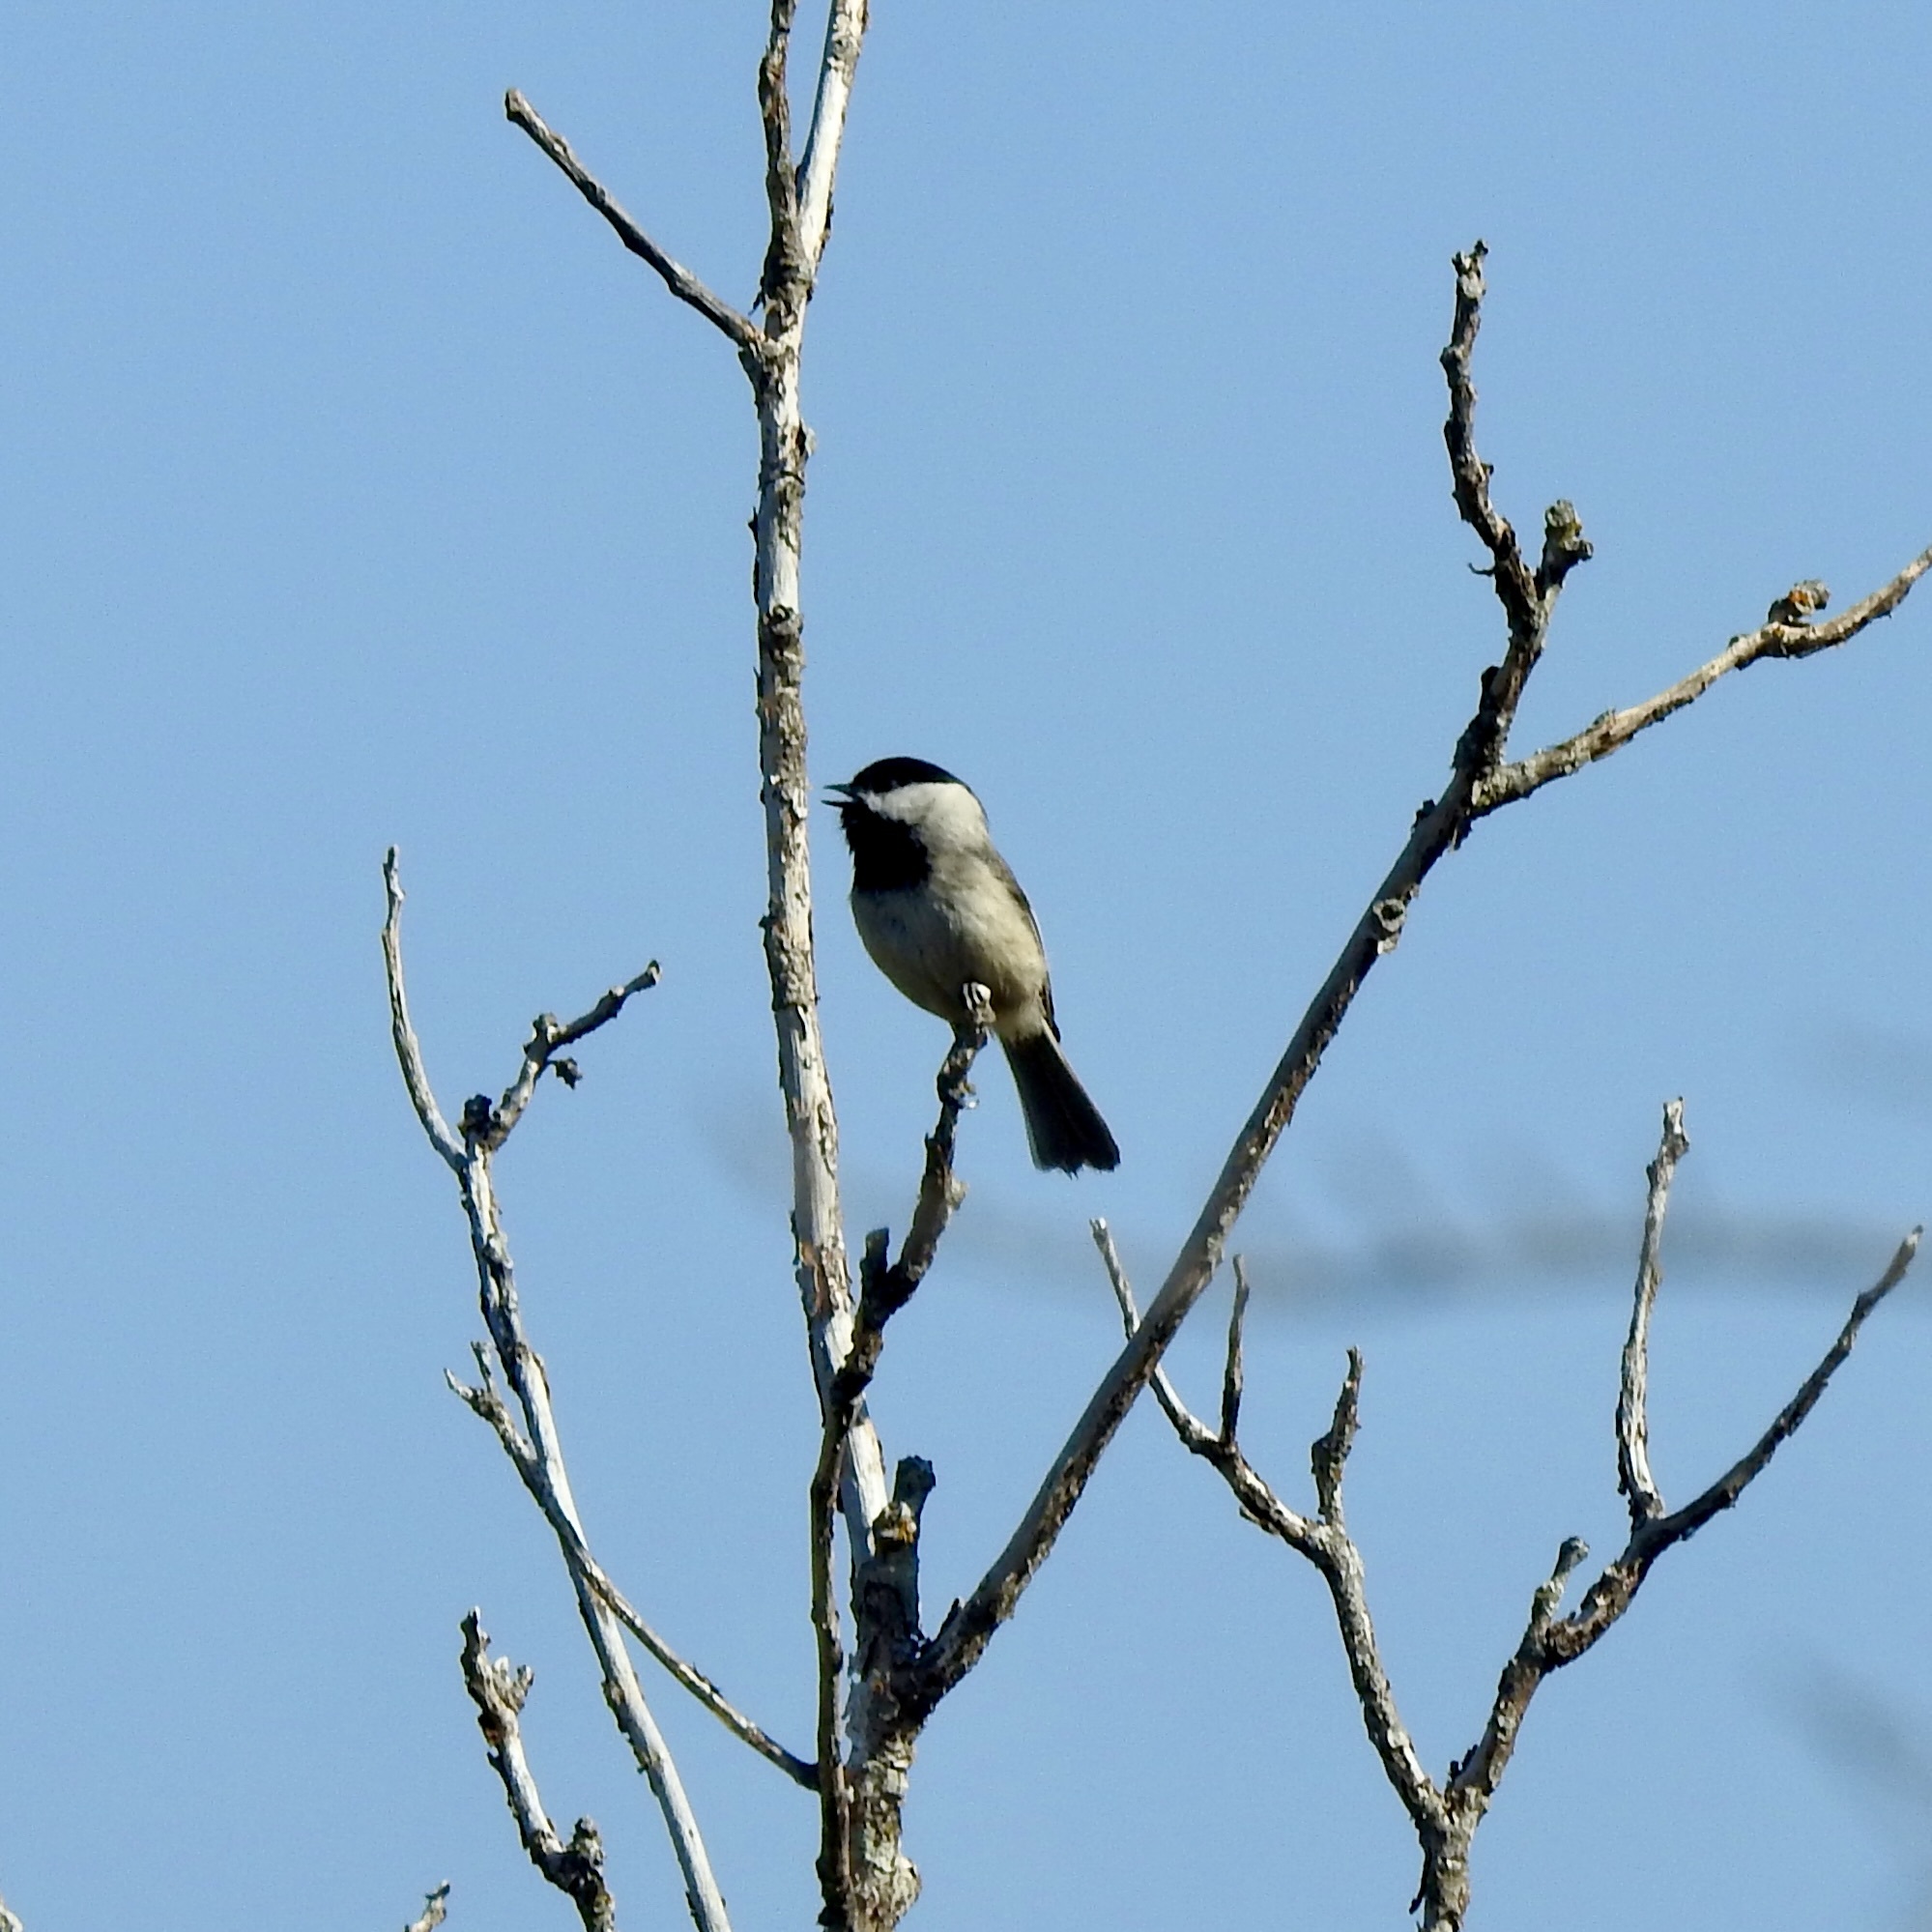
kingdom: Animalia
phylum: Chordata
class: Aves
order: Passeriformes
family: Paridae
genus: Poecile
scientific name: Poecile carolinensis
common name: Carolina chickadee
